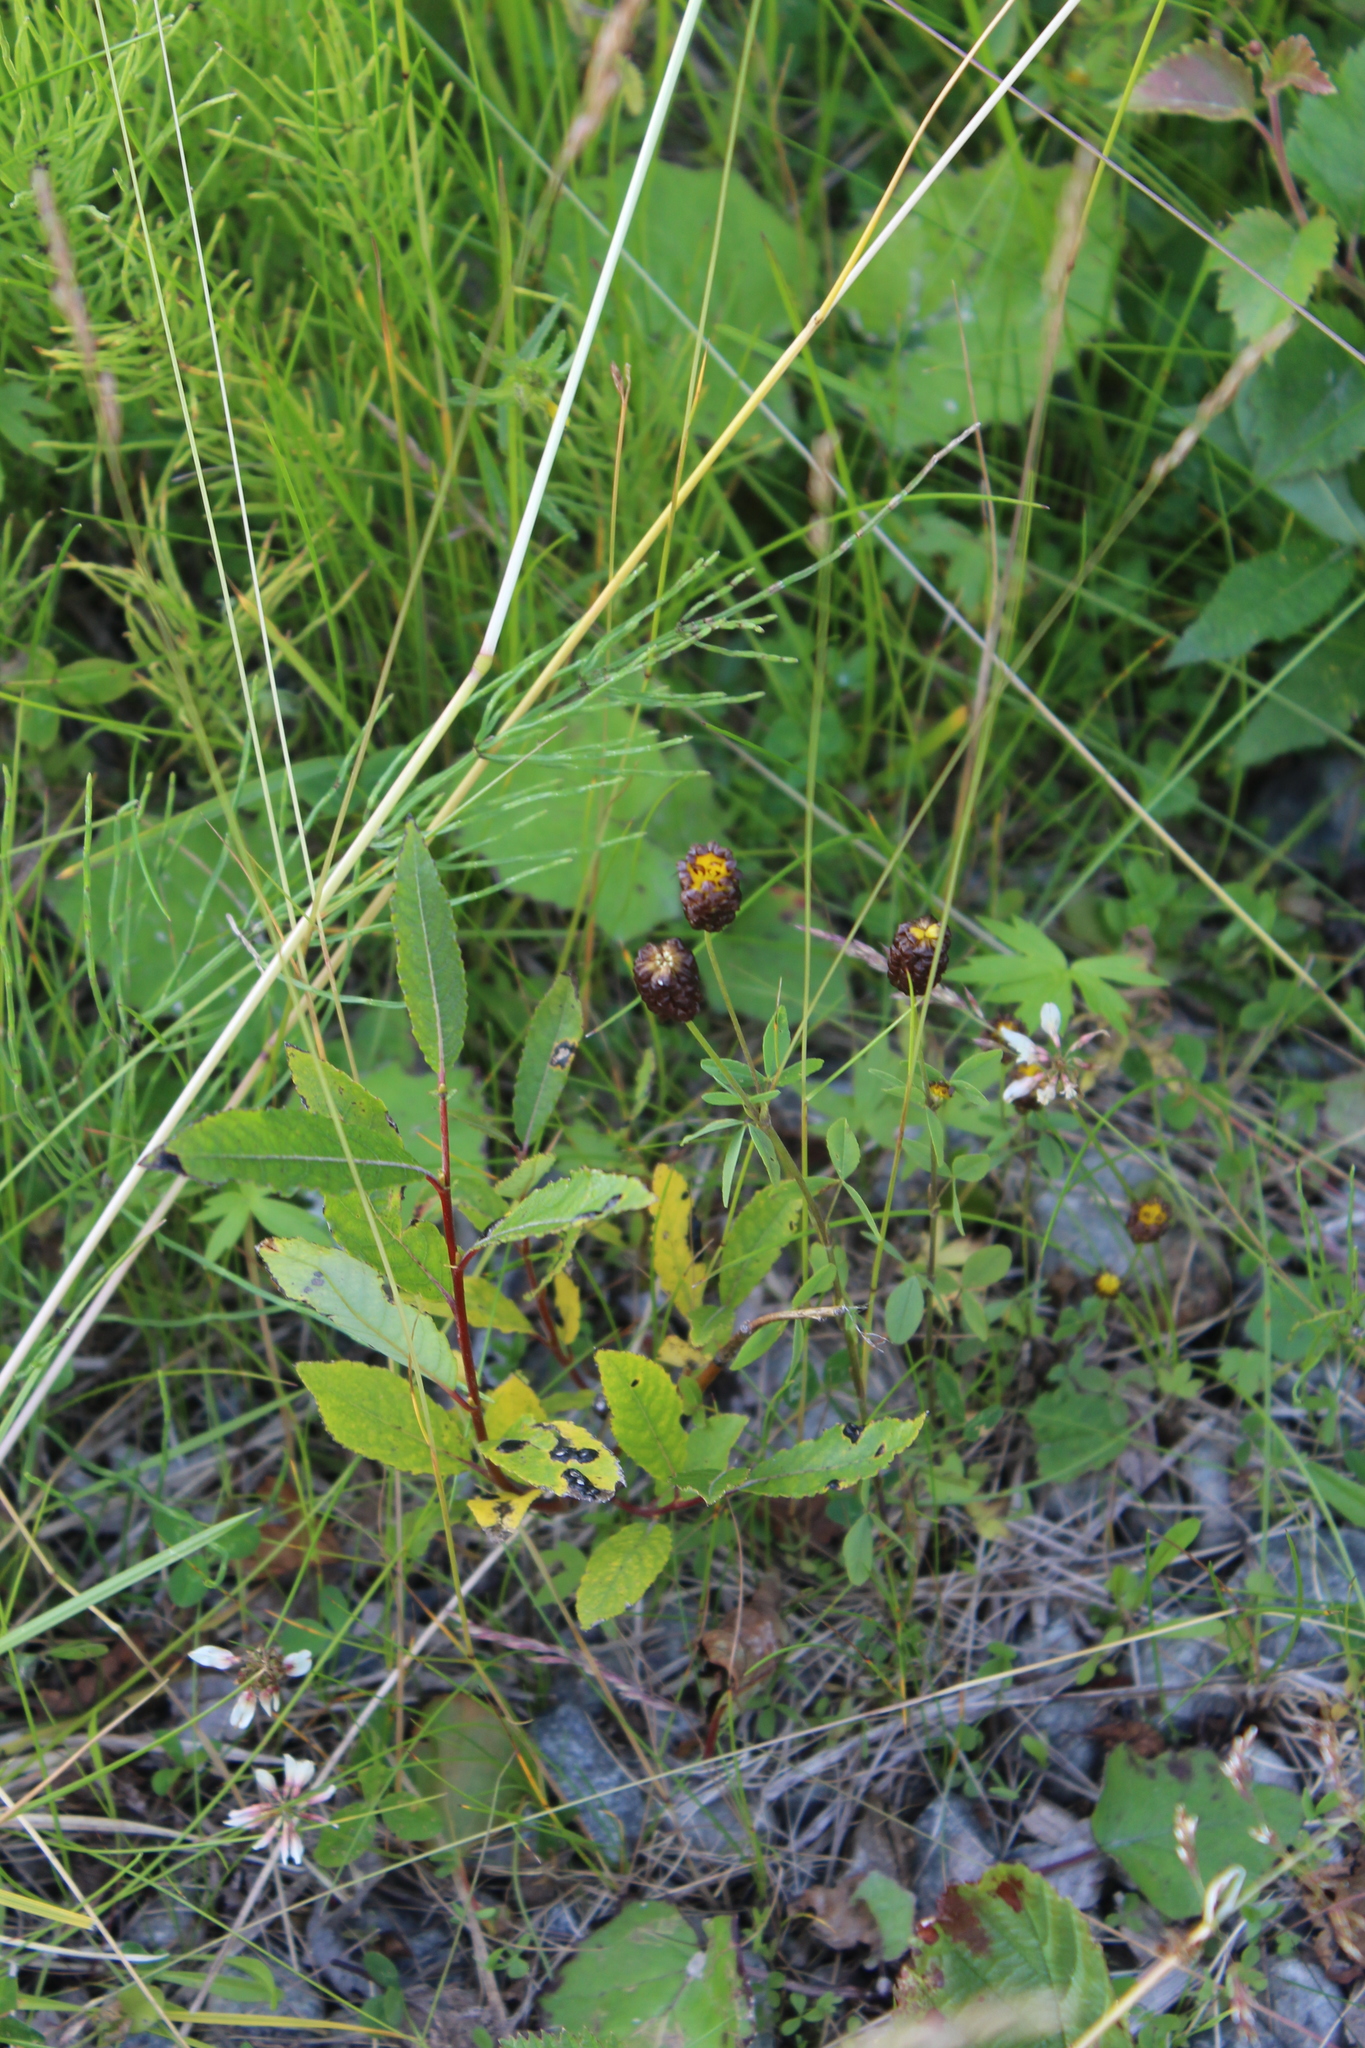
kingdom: Plantae
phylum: Tracheophyta
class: Magnoliopsida
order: Fabales
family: Fabaceae
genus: Trifolium
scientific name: Trifolium spadiceum
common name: Brown moor clover
